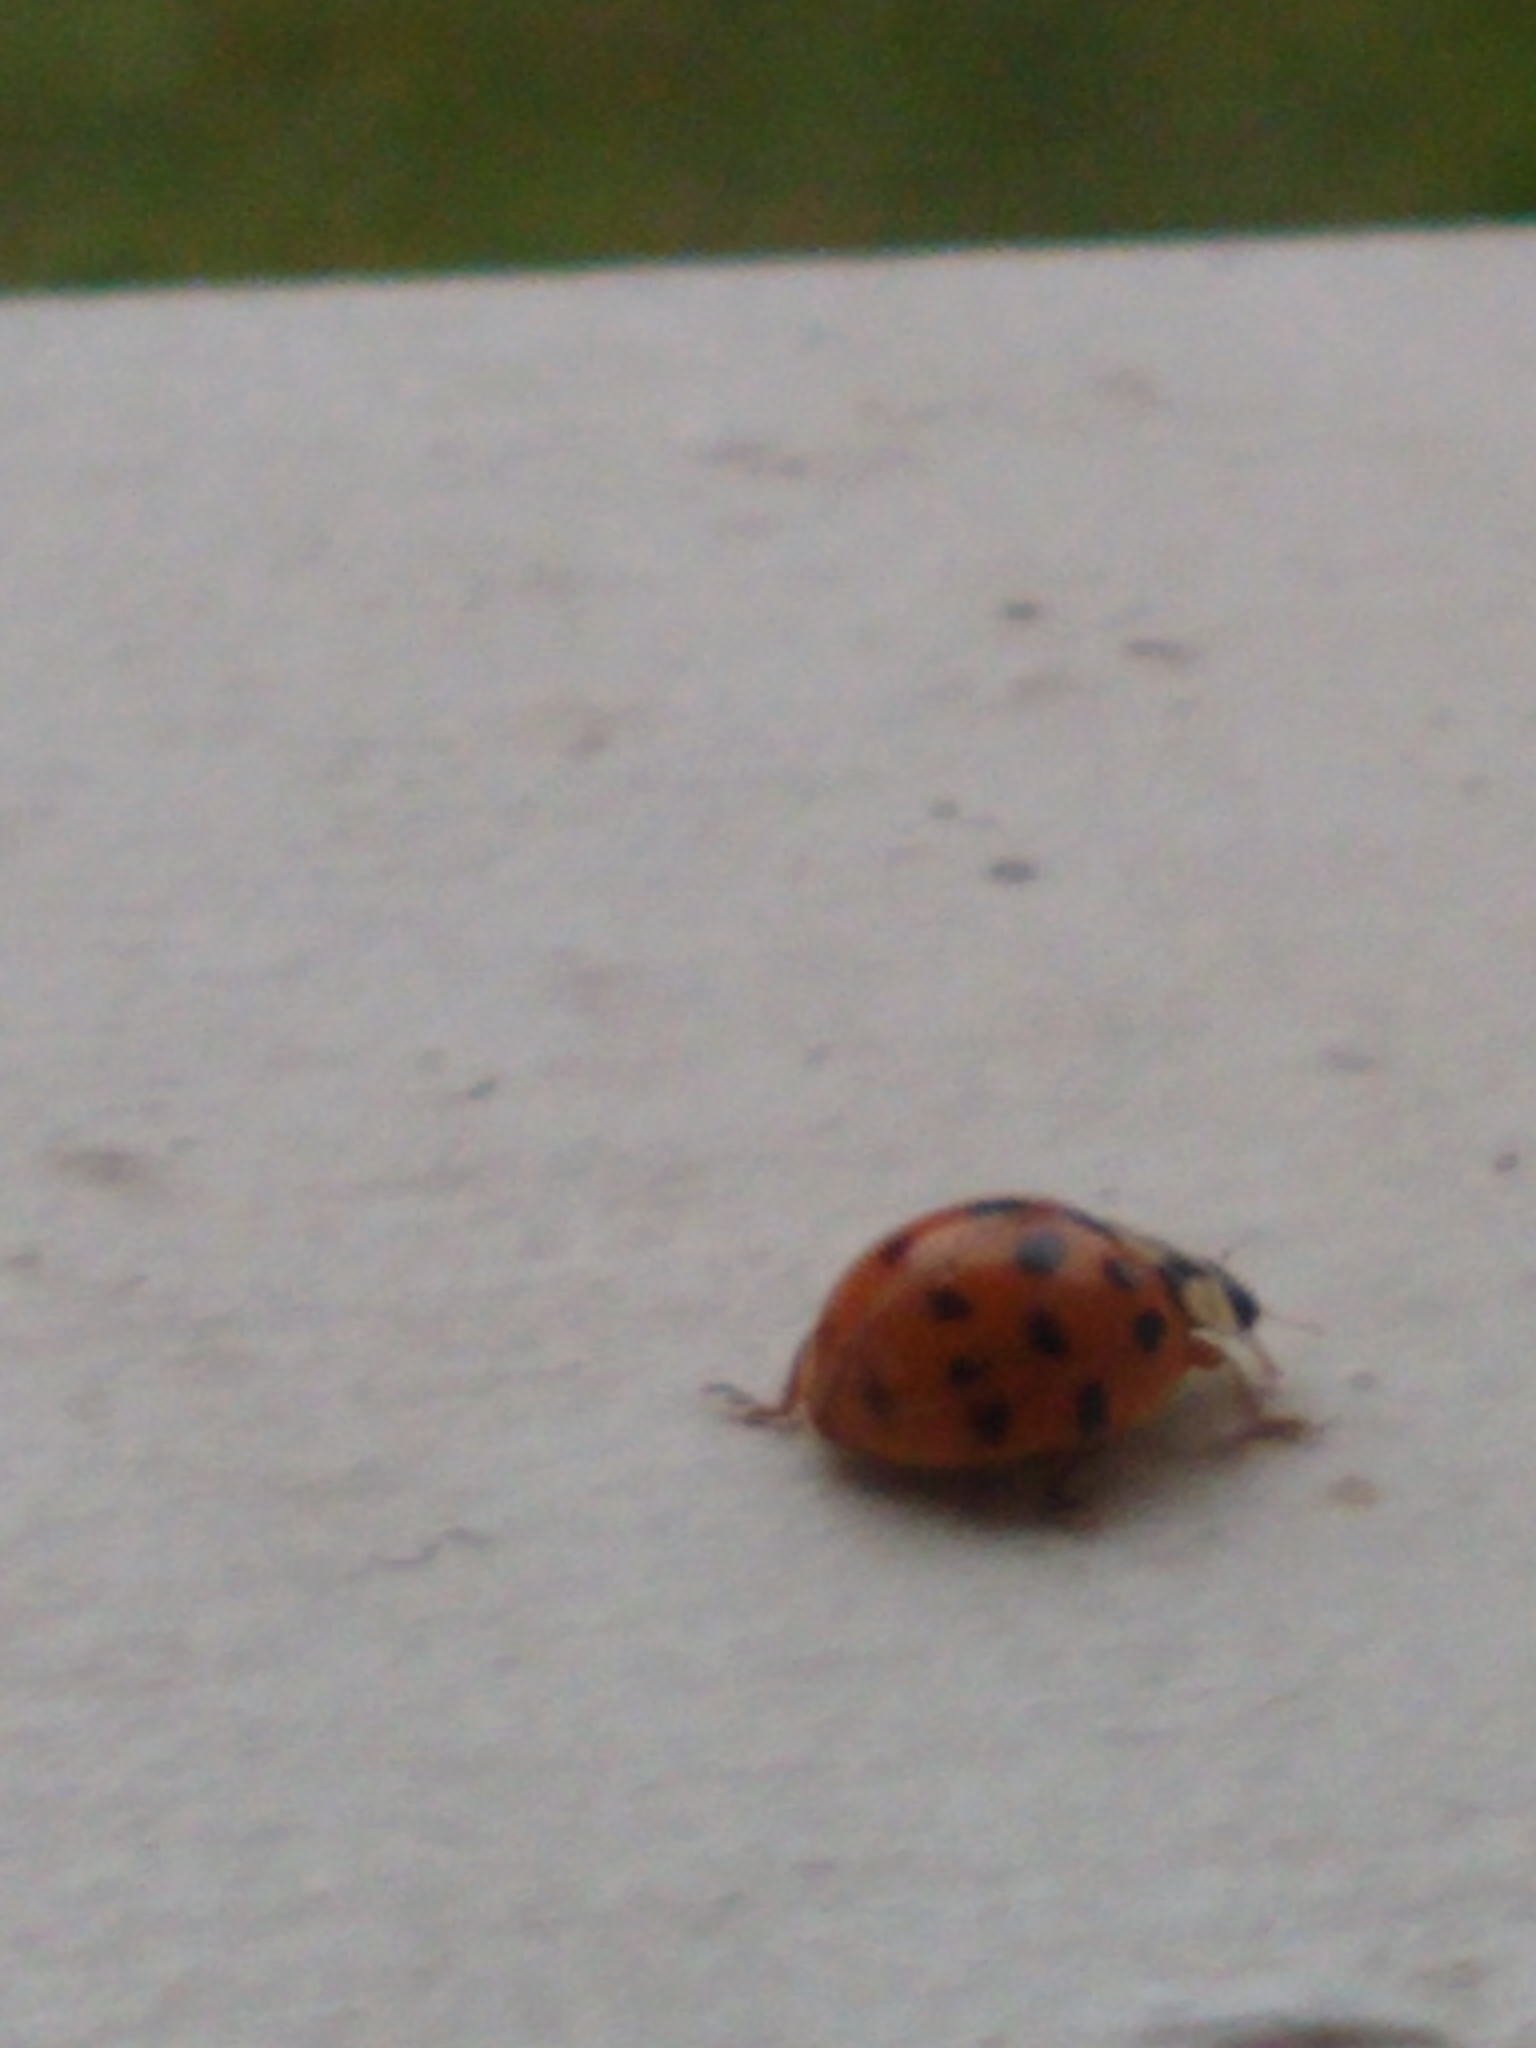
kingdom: Animalia
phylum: Arthropoda
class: Insecta
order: Coleoptera
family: Coccinellidae
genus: Harmonia
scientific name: Harmonia axyridis
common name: Harlequin ladybird
